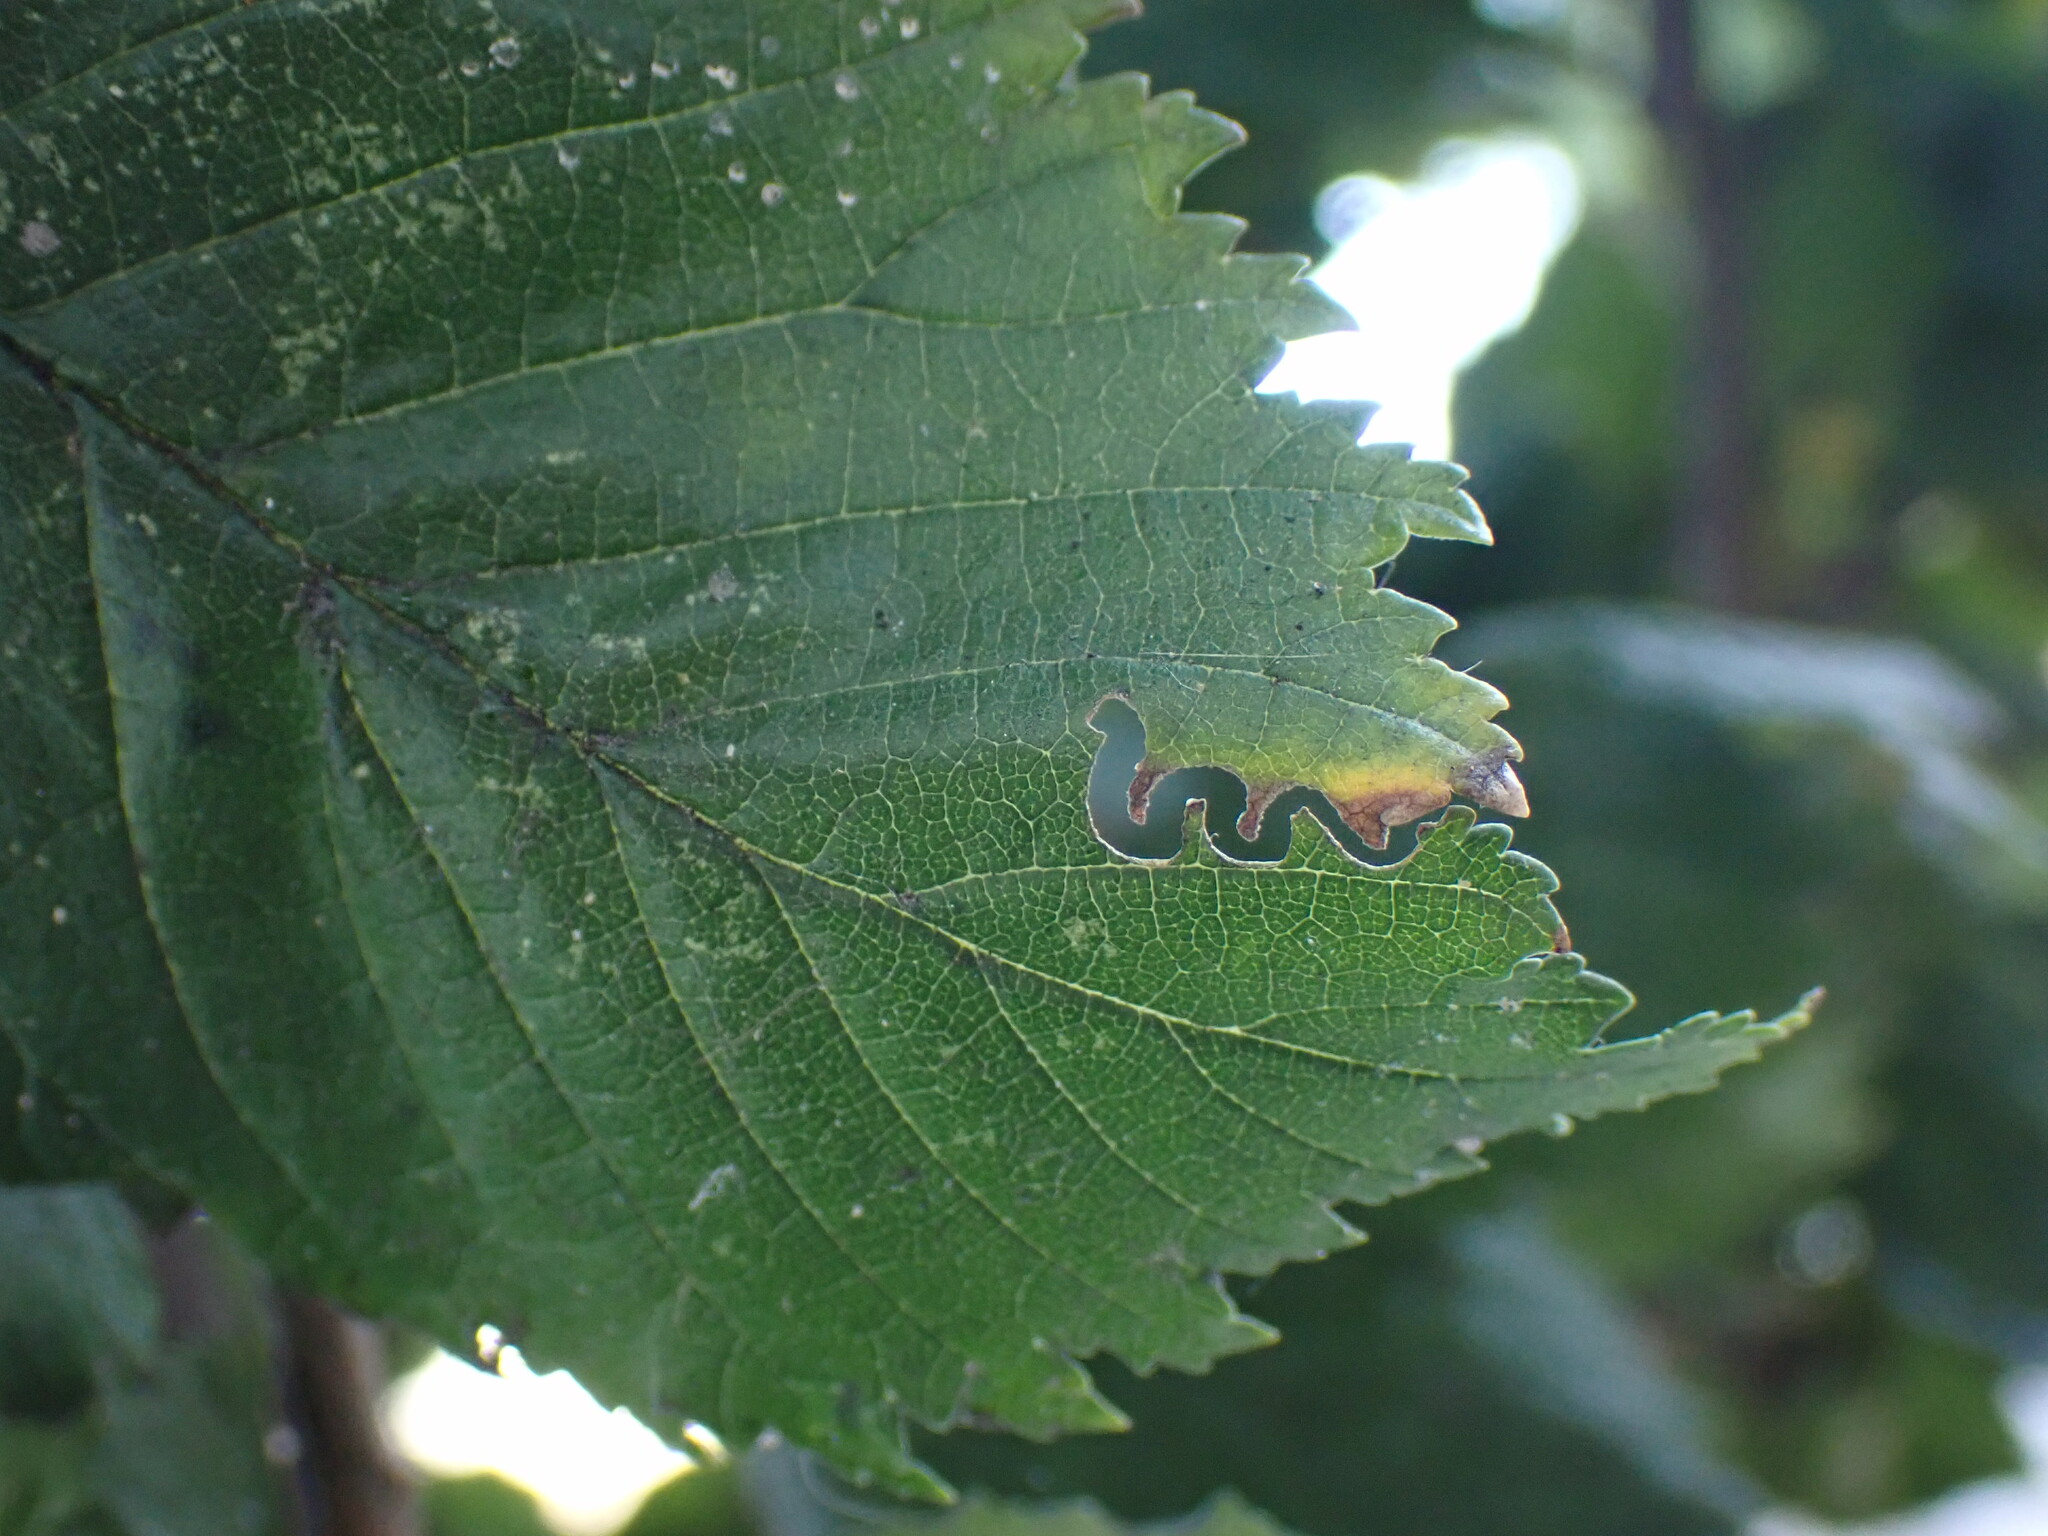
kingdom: Animalia
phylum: Arthropoda
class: Insecta
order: Hymenoptera
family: Argidae
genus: Aproceros
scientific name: Aproceros leucopoda
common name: Zig-zag elm sawfly
